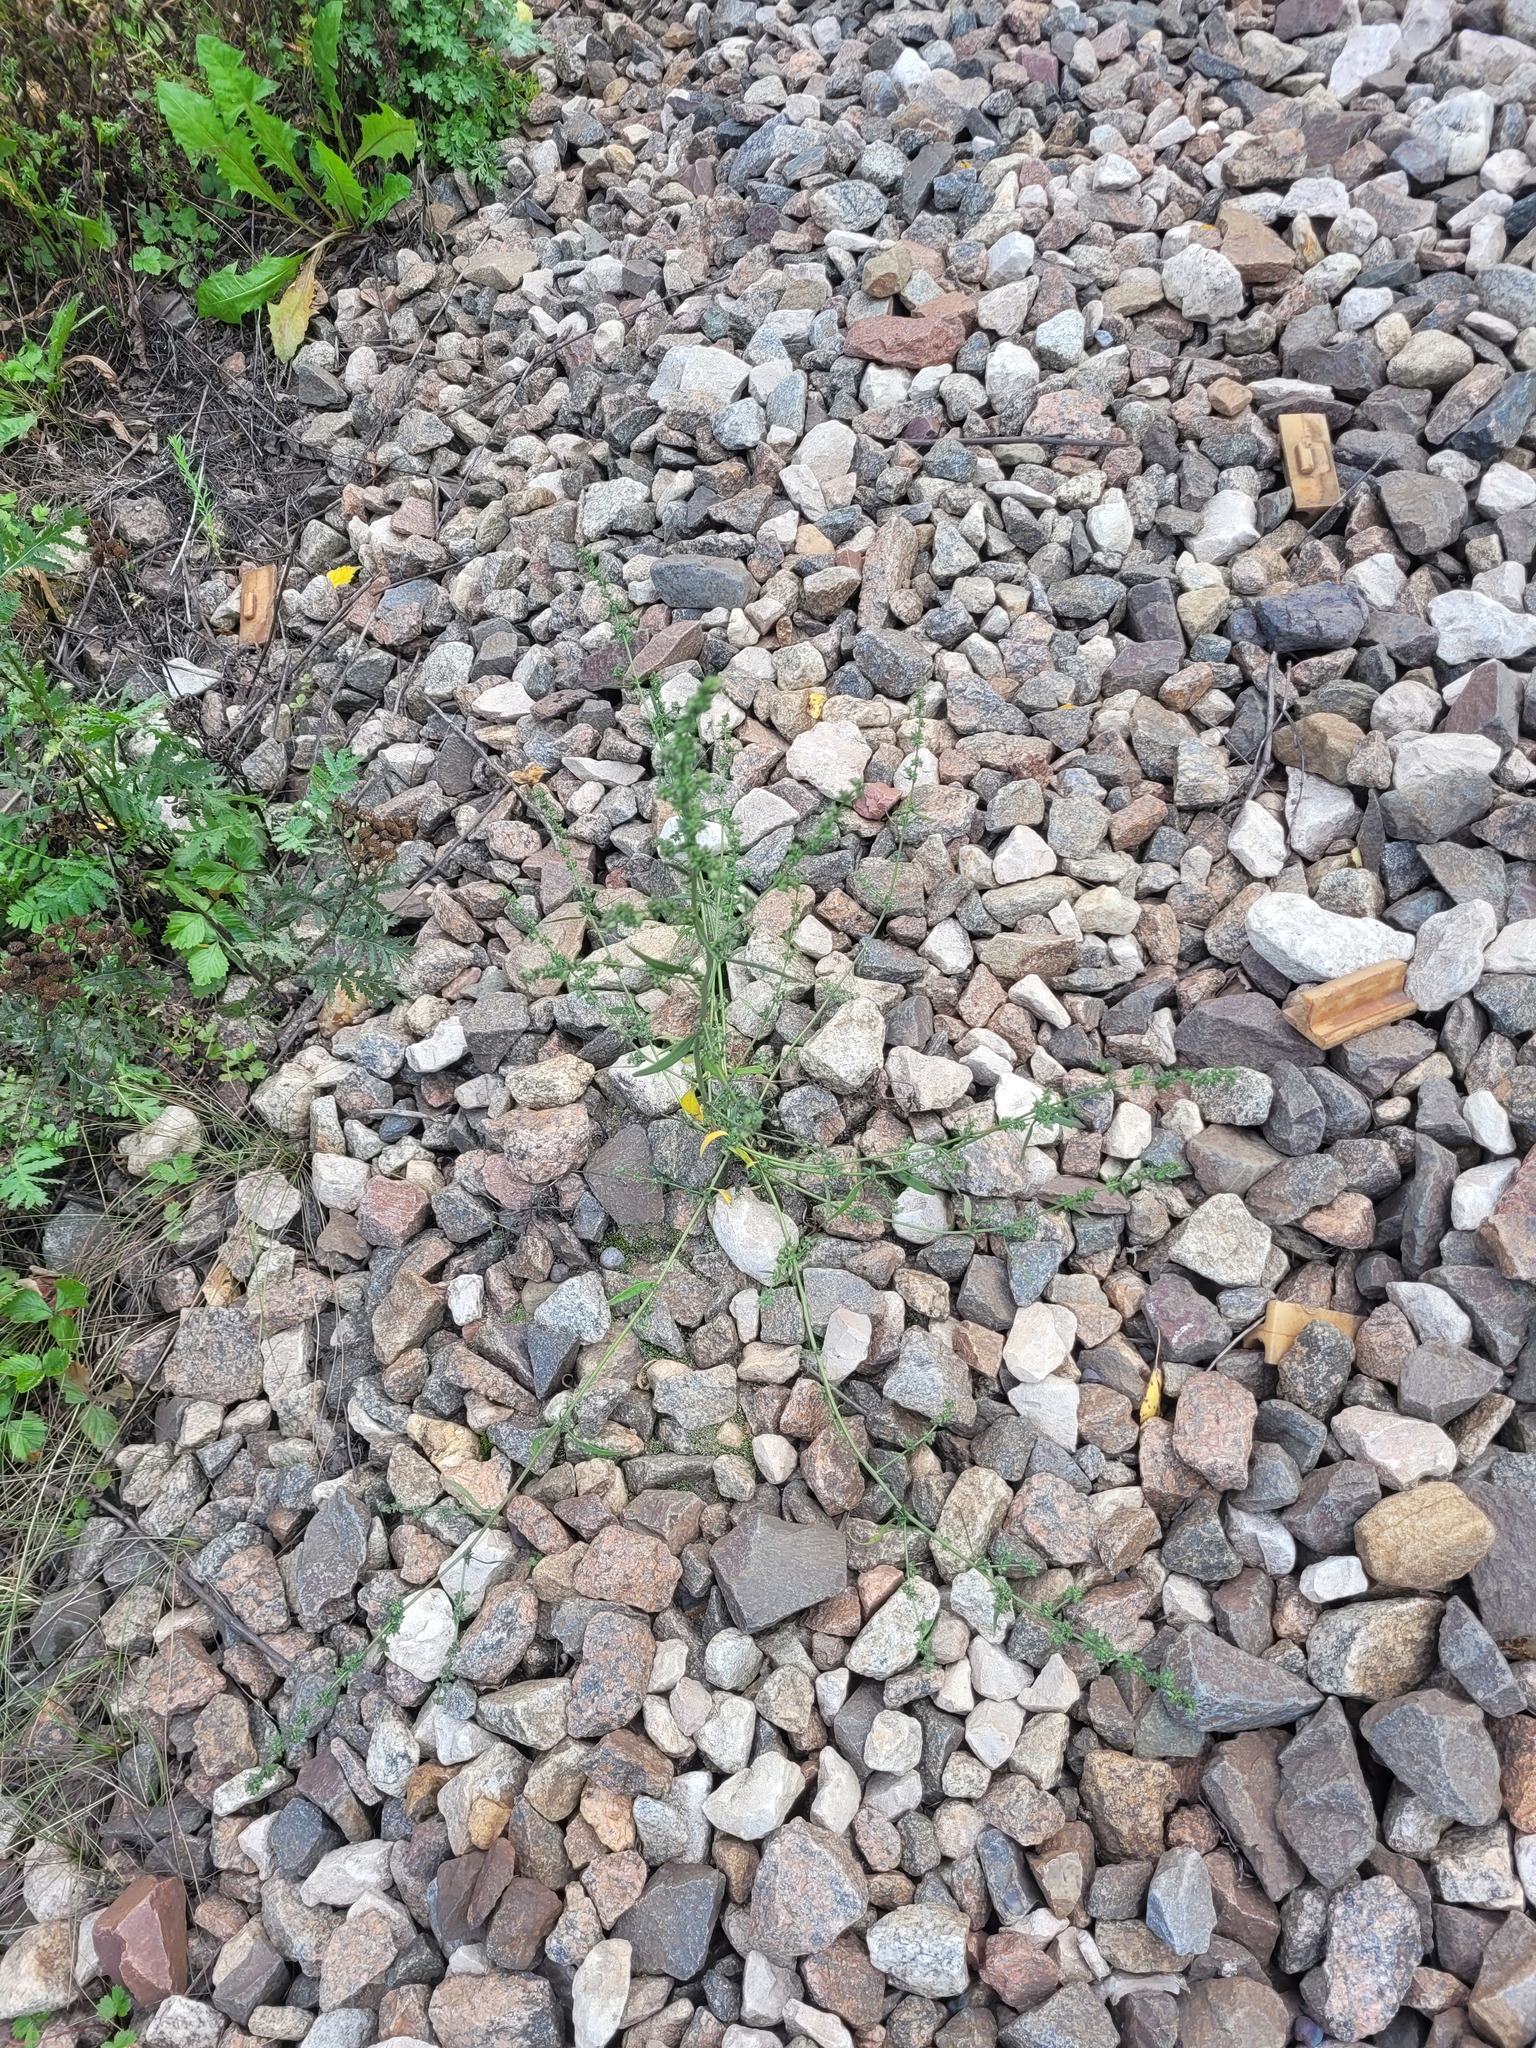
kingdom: Plantae
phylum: Tracheophyta
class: Magnoliopsida
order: Caryophyllales
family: Amaranthaceae
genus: Atriplex
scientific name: Atriplex patula
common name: Common orache
